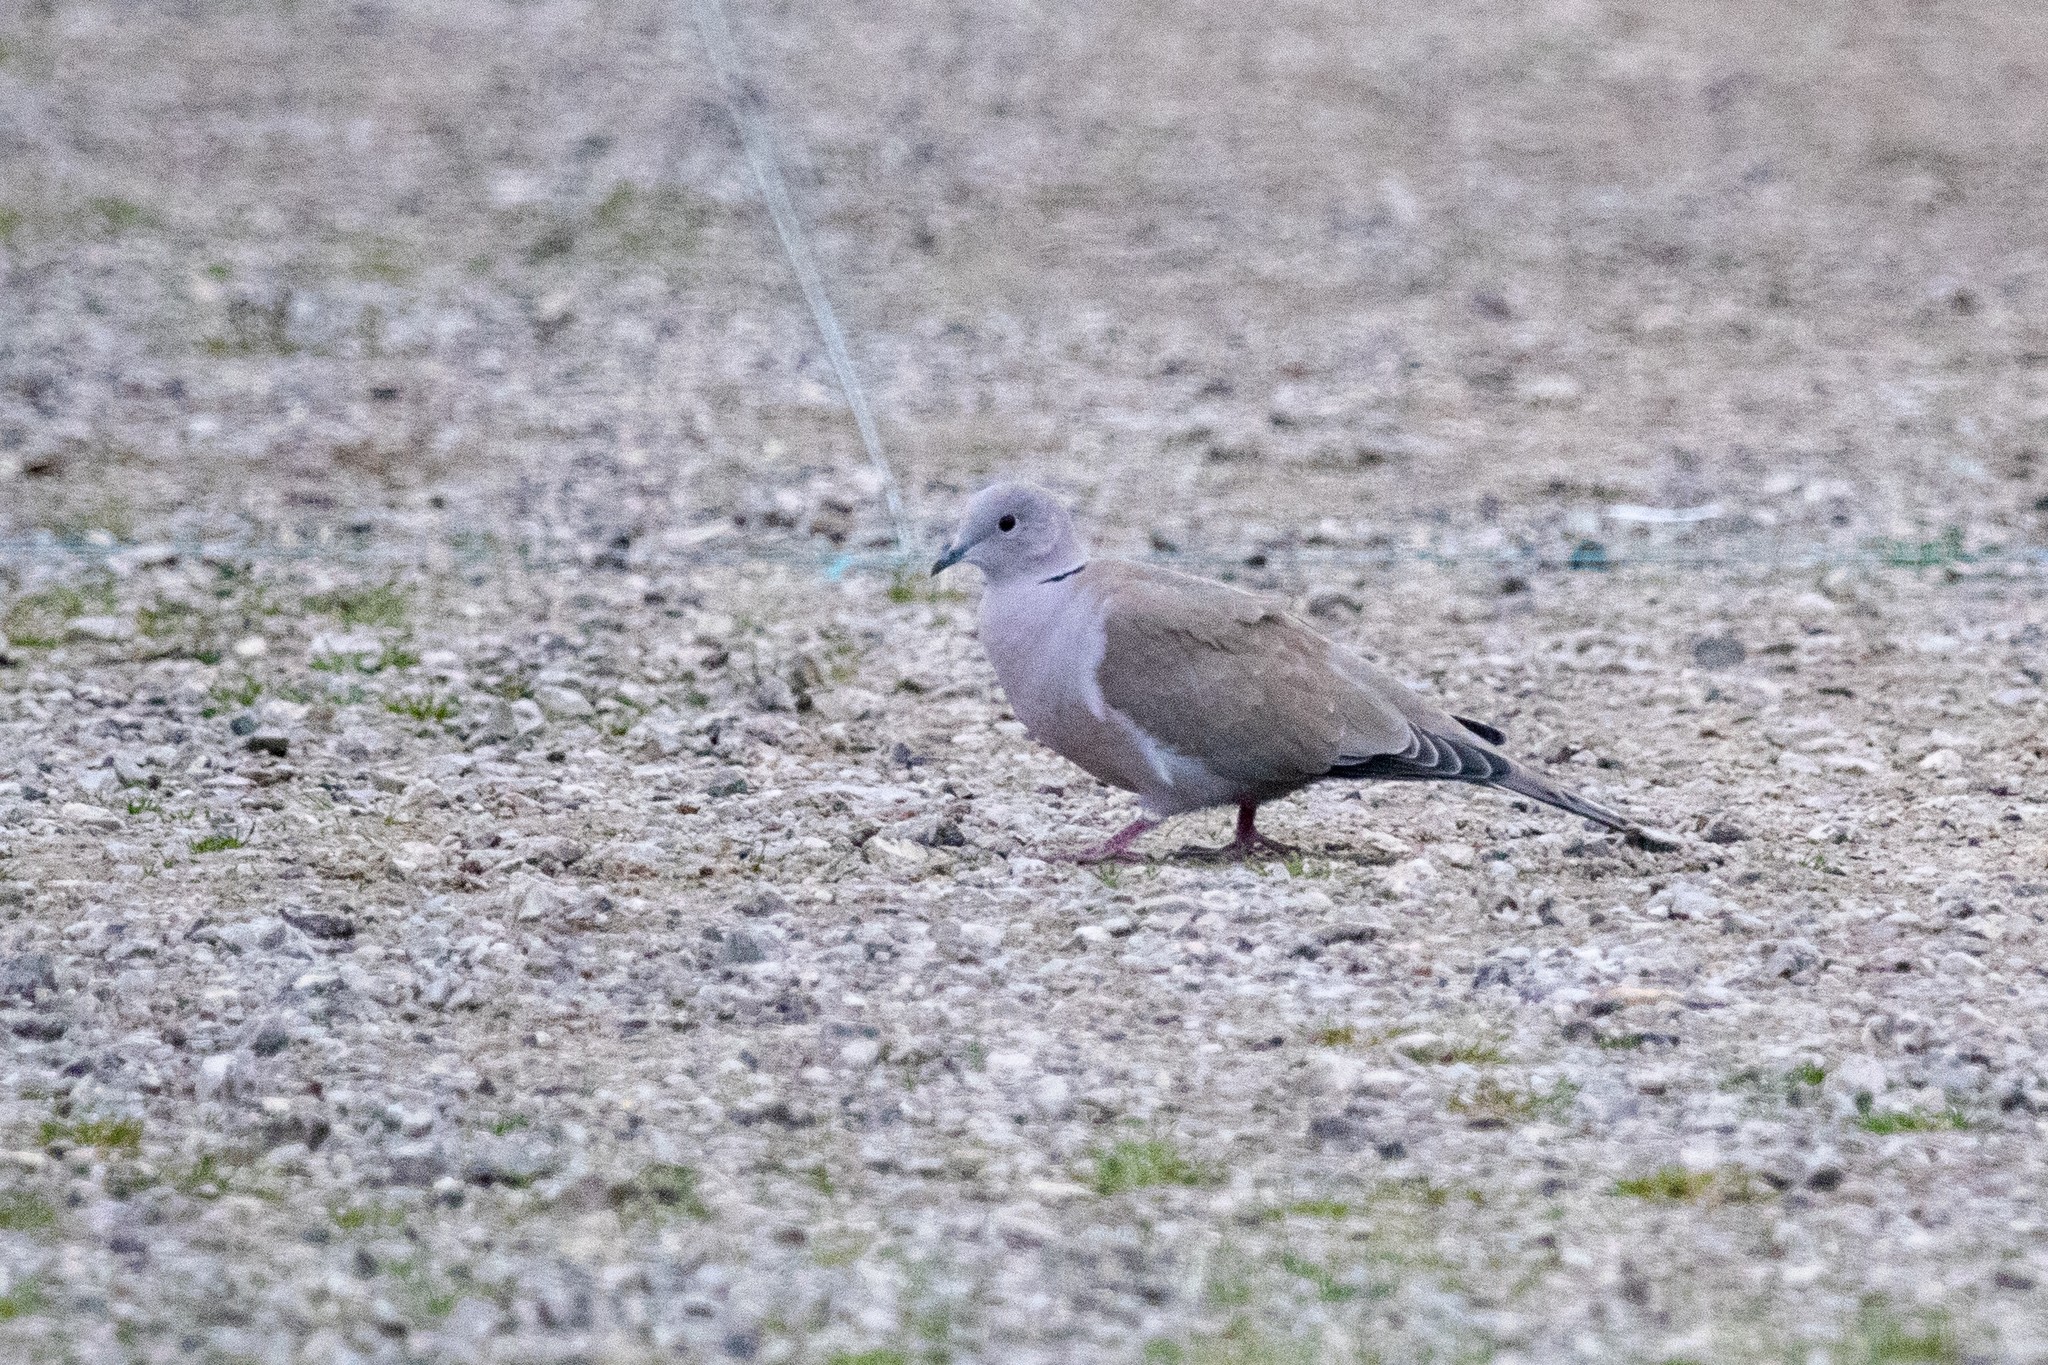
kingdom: Animalia
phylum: Chordata
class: Aves
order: Columbiformes
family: Columbidae
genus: Streptopelia
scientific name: Streptopelia decaocto
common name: Eurasian collared dove
